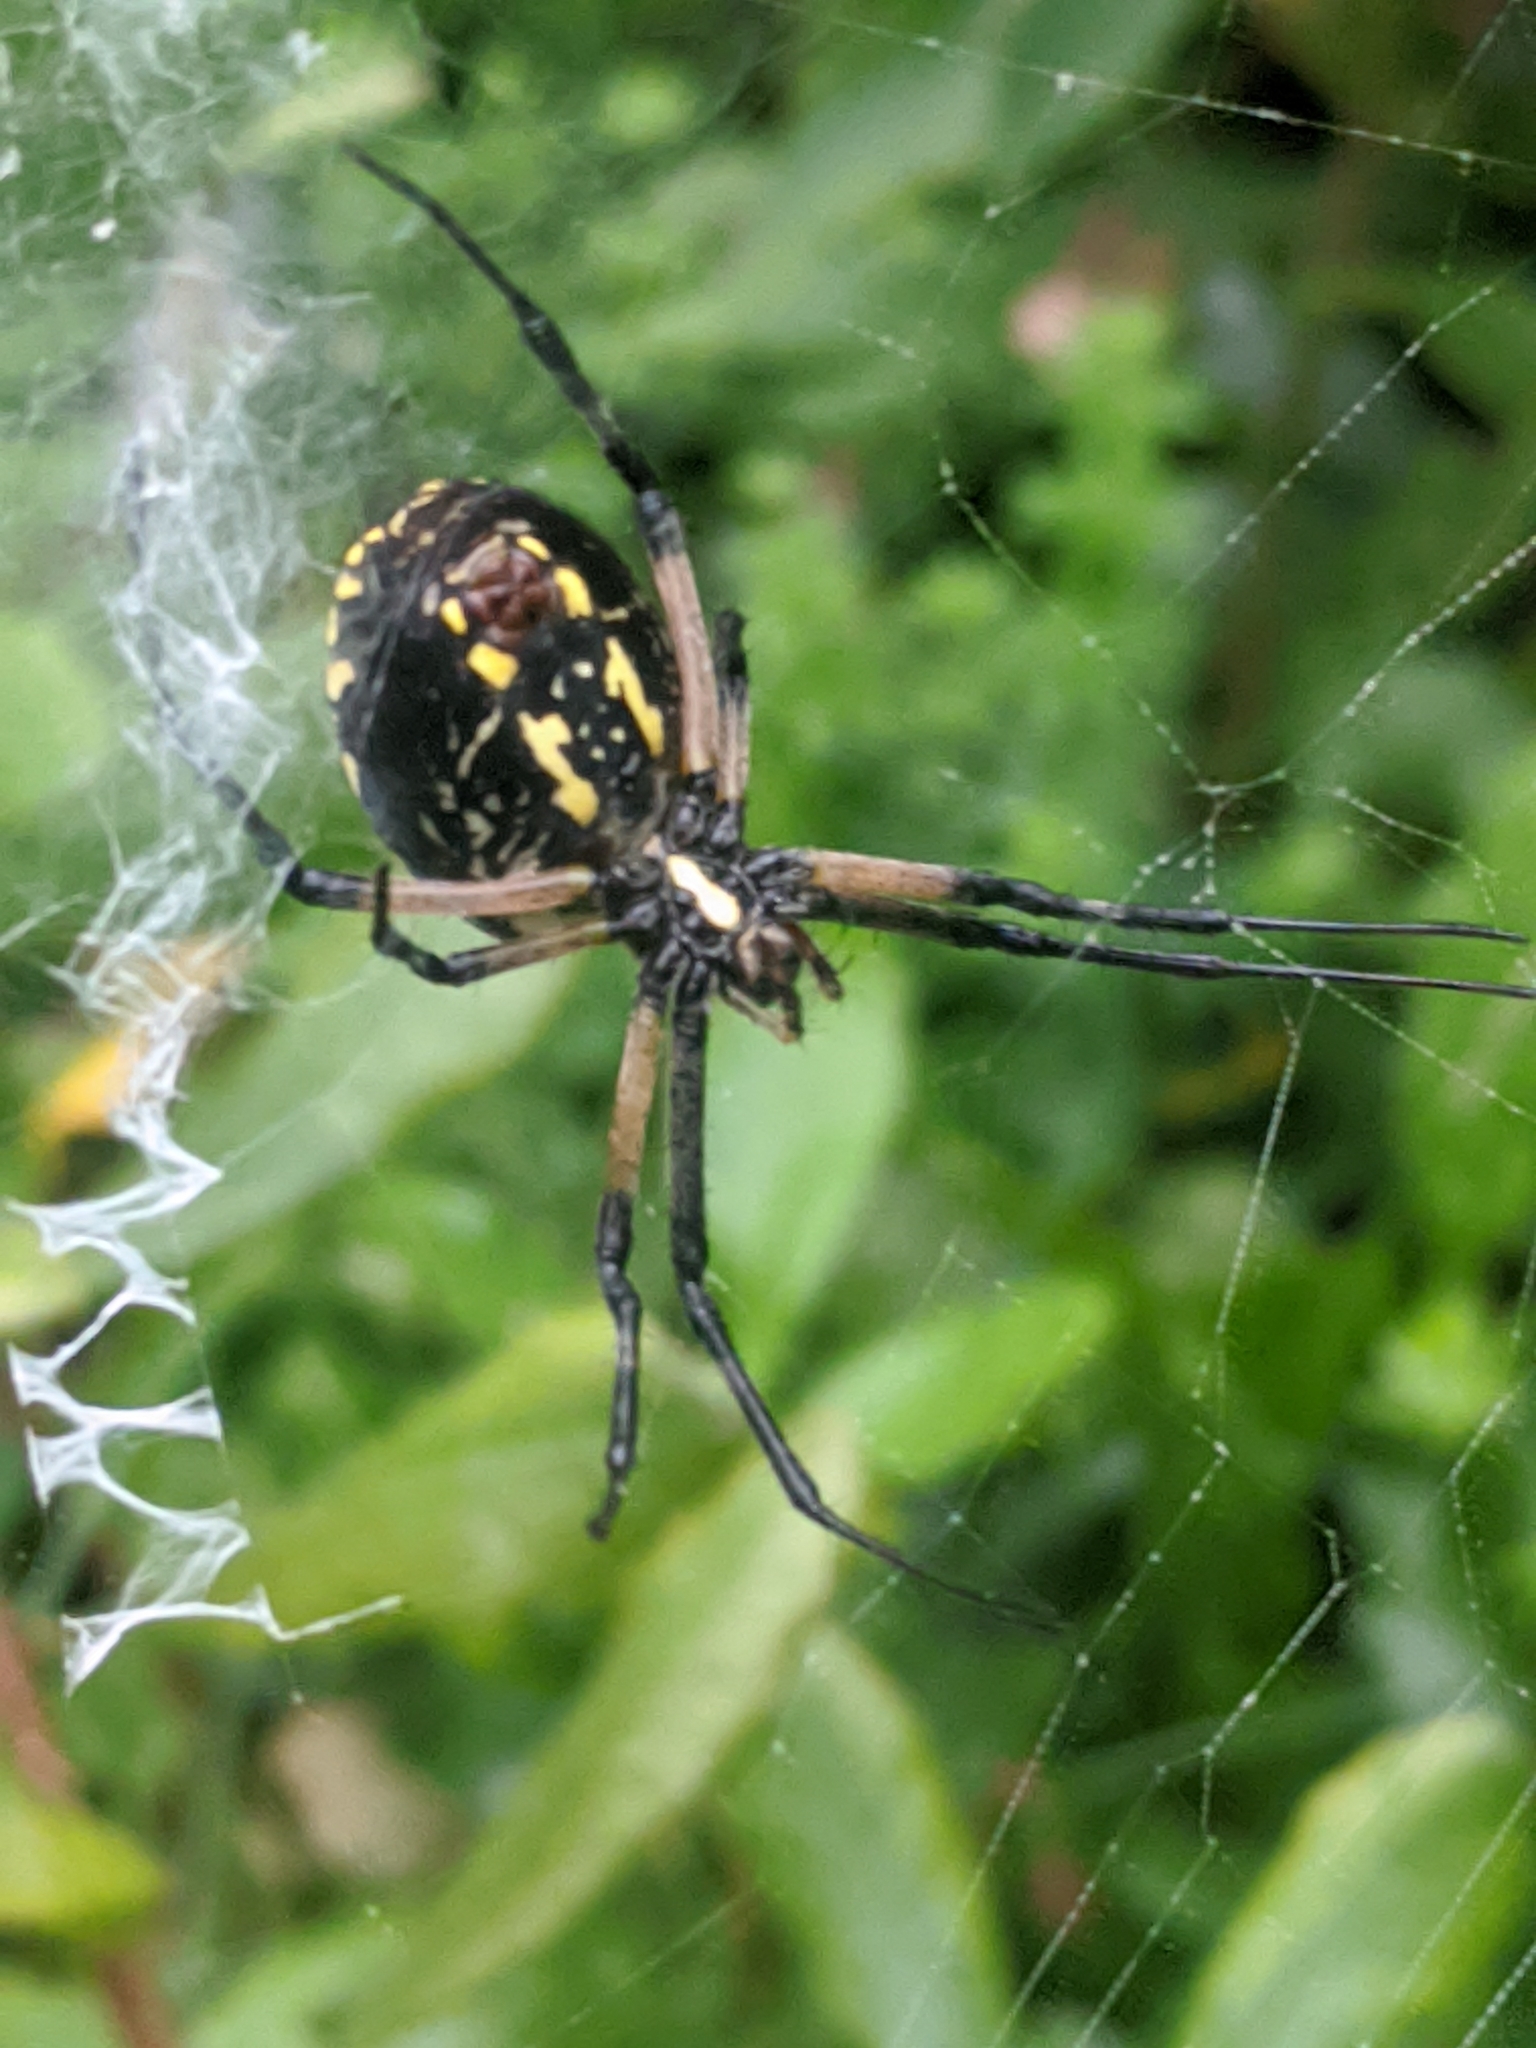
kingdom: Animalia
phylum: Arthropoda
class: Arachnida
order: Araneae
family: Araneidae
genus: Argiope
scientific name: Argiope aurantia
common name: Orb weavers
